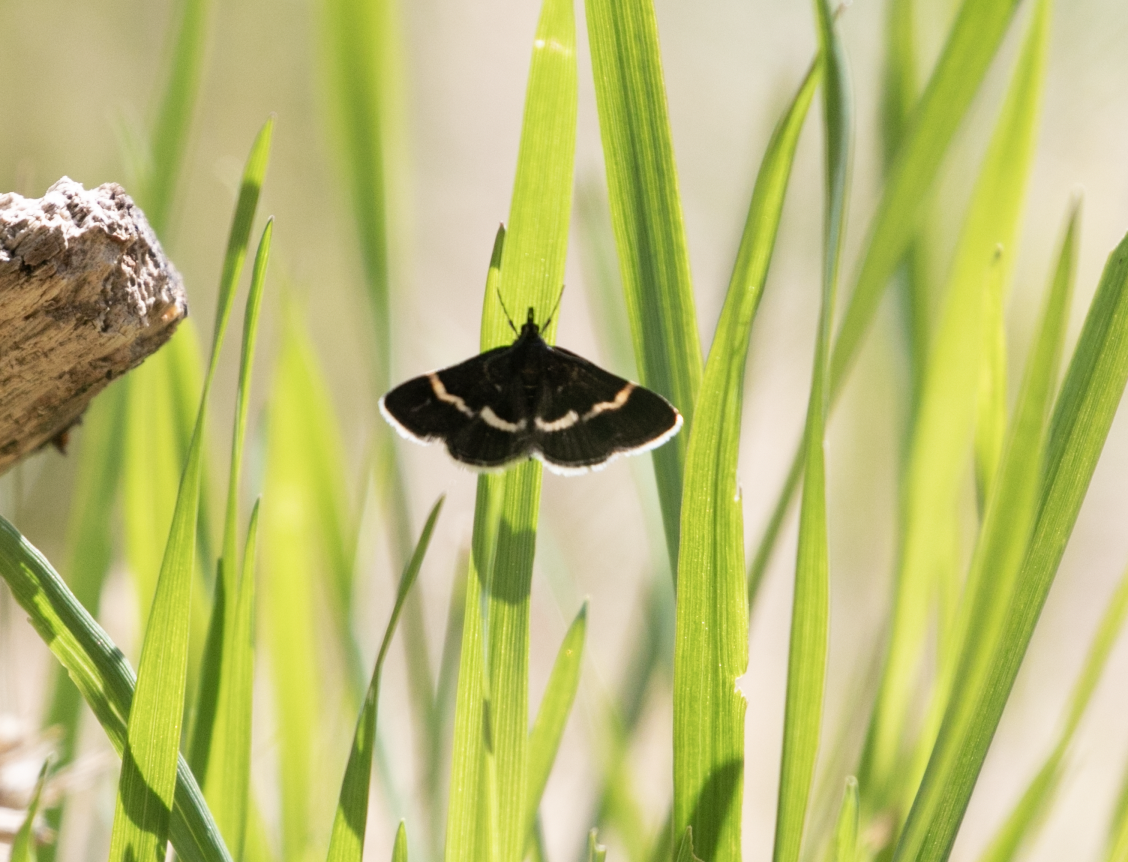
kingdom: Animalia
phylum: Arthropoda
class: Insecta
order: Lepidoptera
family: Crambidae
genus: Pyrausta
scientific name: Pyrausta cingulata
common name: Silver-barred sable
